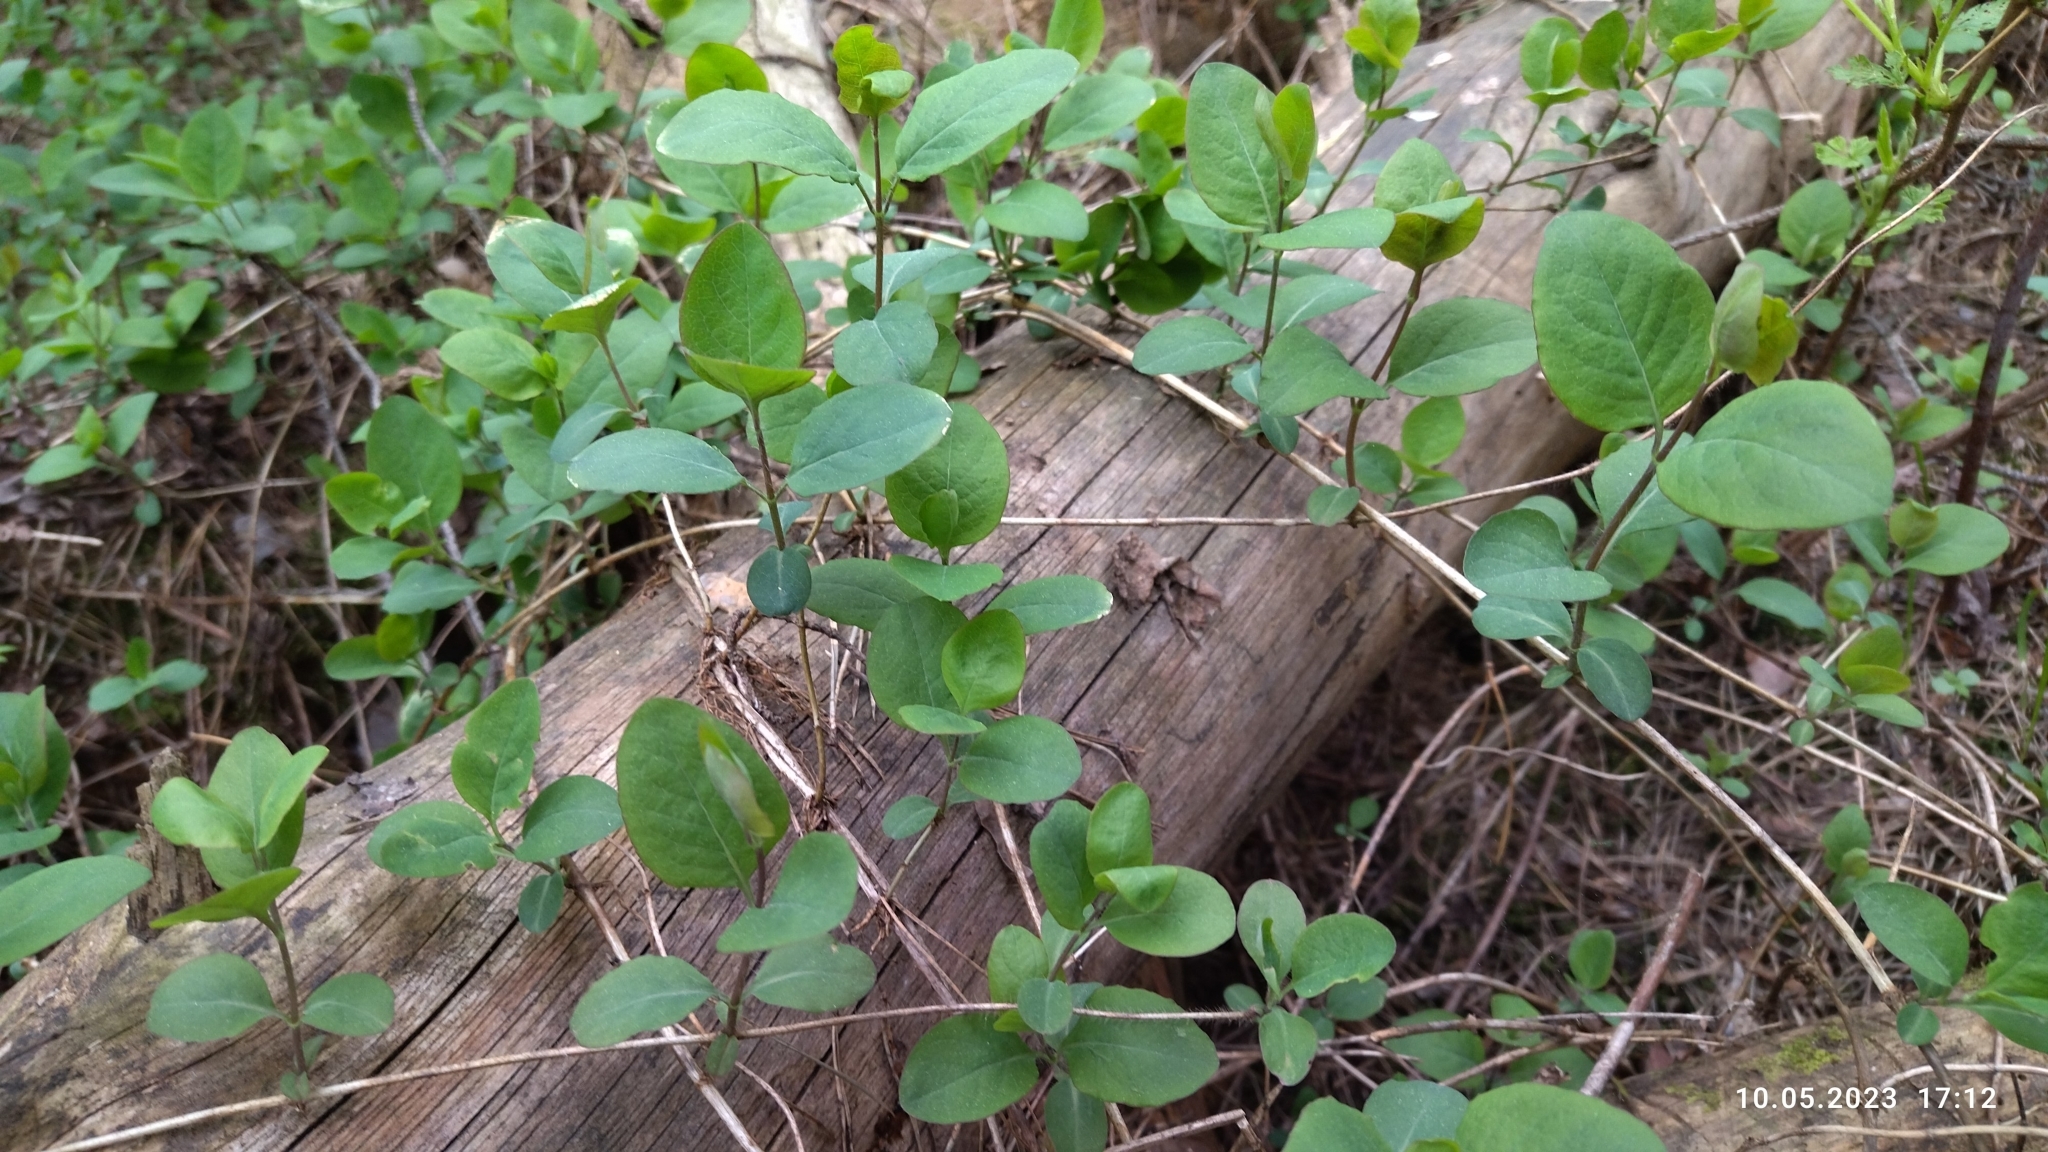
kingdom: Plantae
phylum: Tracheophyta
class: Magnoliopsida
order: Dipsacales
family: Caprifoliaceae
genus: Lonicera
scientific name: Lonicera caprifolium
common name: Perfoliate honeysuckle
